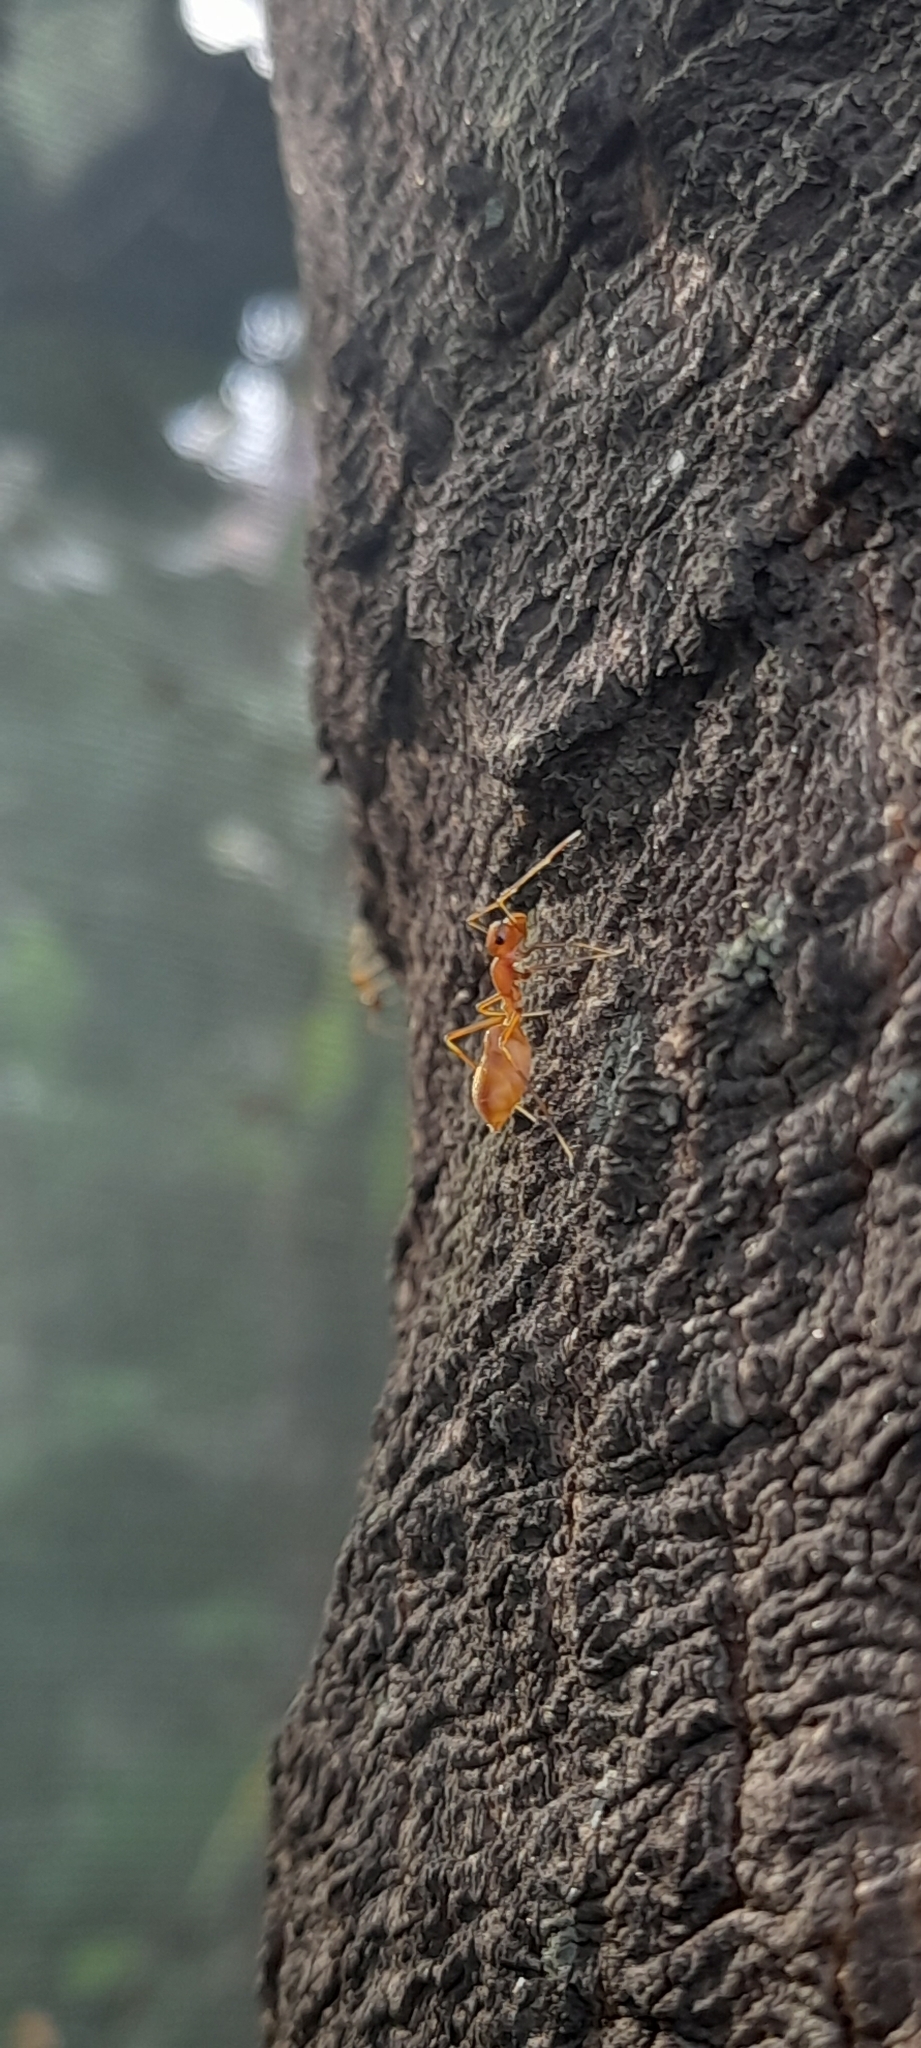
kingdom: Animalia
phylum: Arthropoda
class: Arachnida
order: Araneae
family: Salticidae
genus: Myrmaplata
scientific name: Myrmaplata plataleoides
